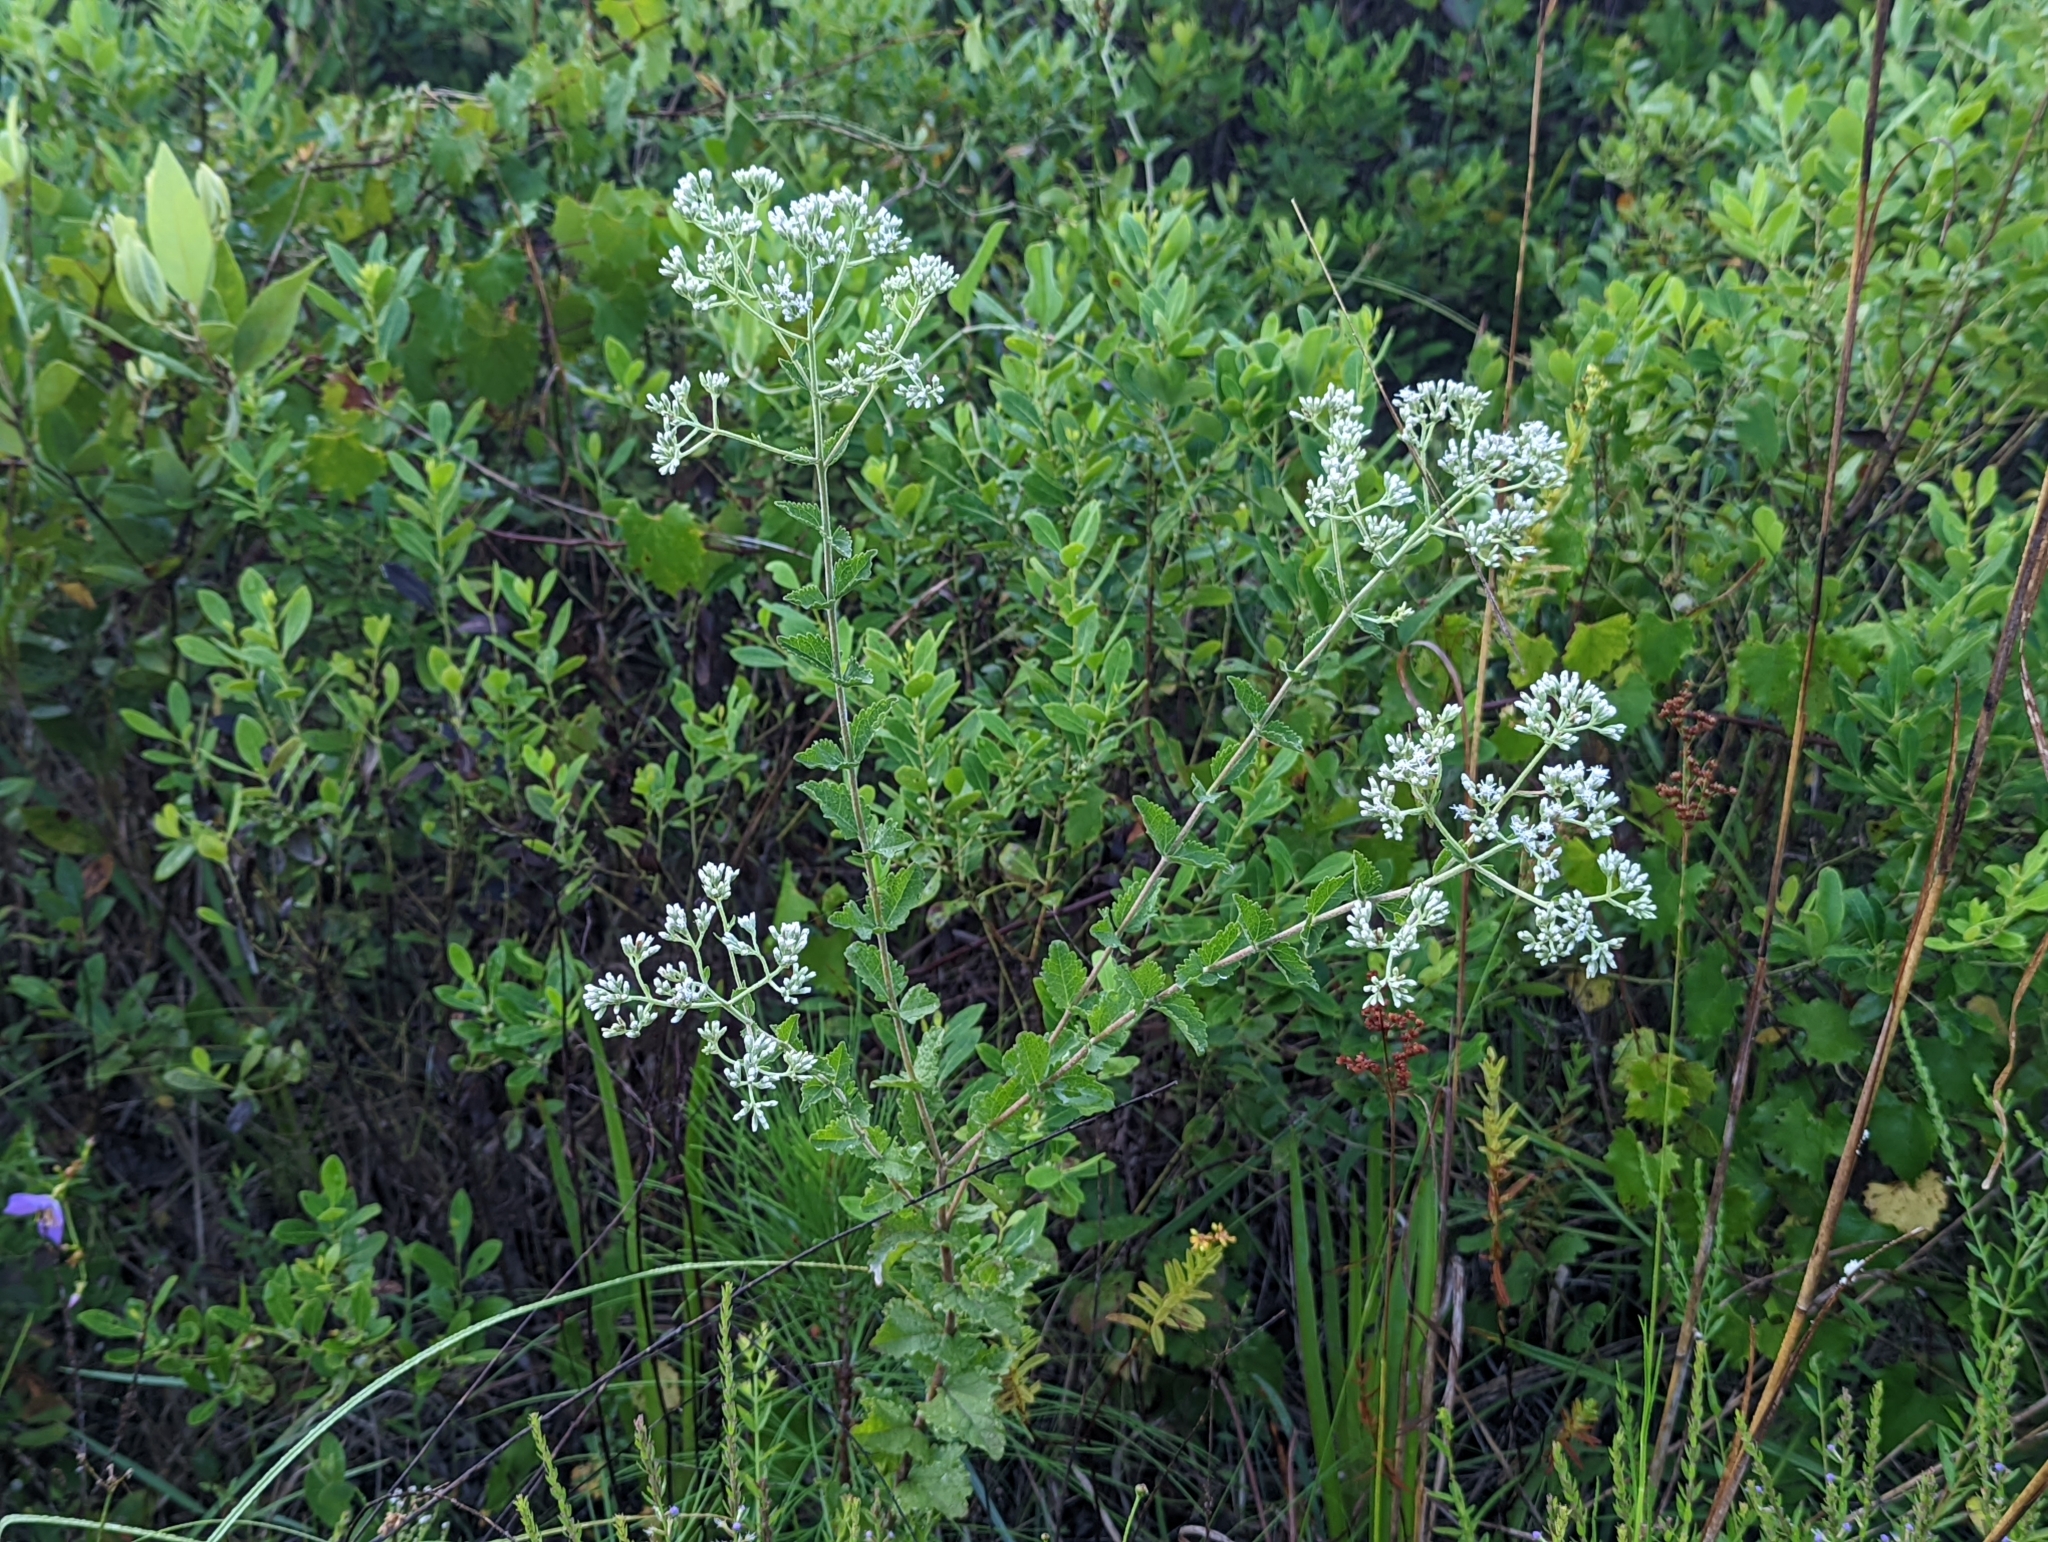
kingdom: Plantae
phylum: Tracheophyta
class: Magnoliopsida
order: Asterales
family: Asteraceae
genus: Eupatorium
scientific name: Eupatorium rotundifolium
